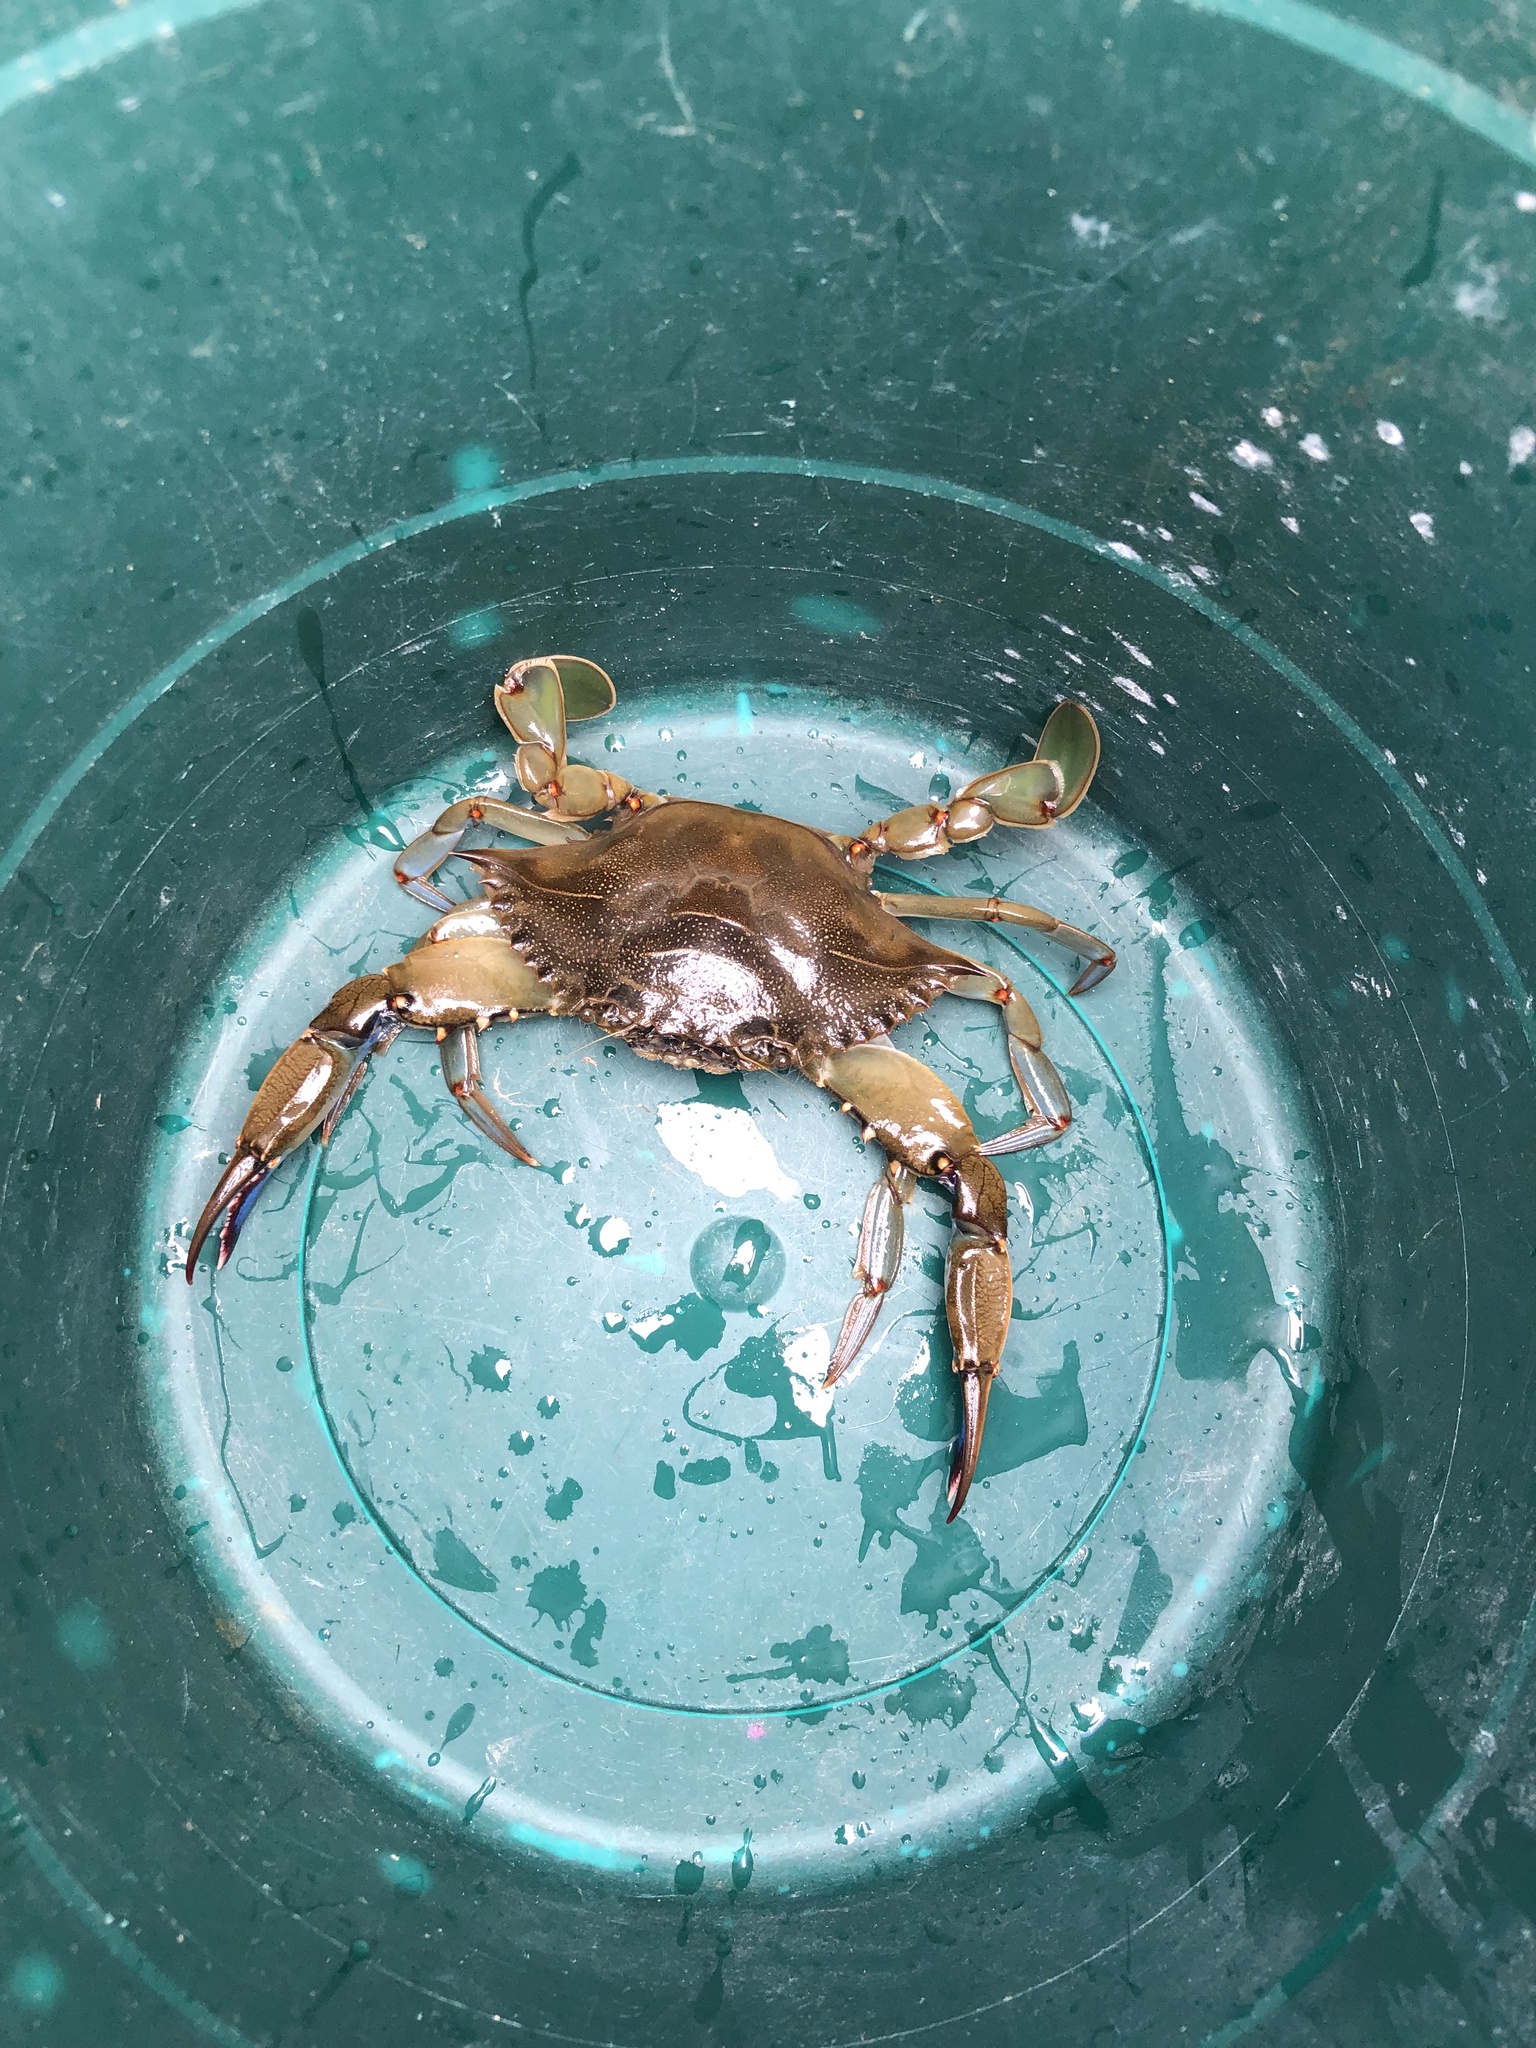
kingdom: Animalia
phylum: Arthropoda
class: Malacostraca
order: Decapoda
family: Portunidae
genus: Callinectes
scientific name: Callinectes sapidus
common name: Blue crab
